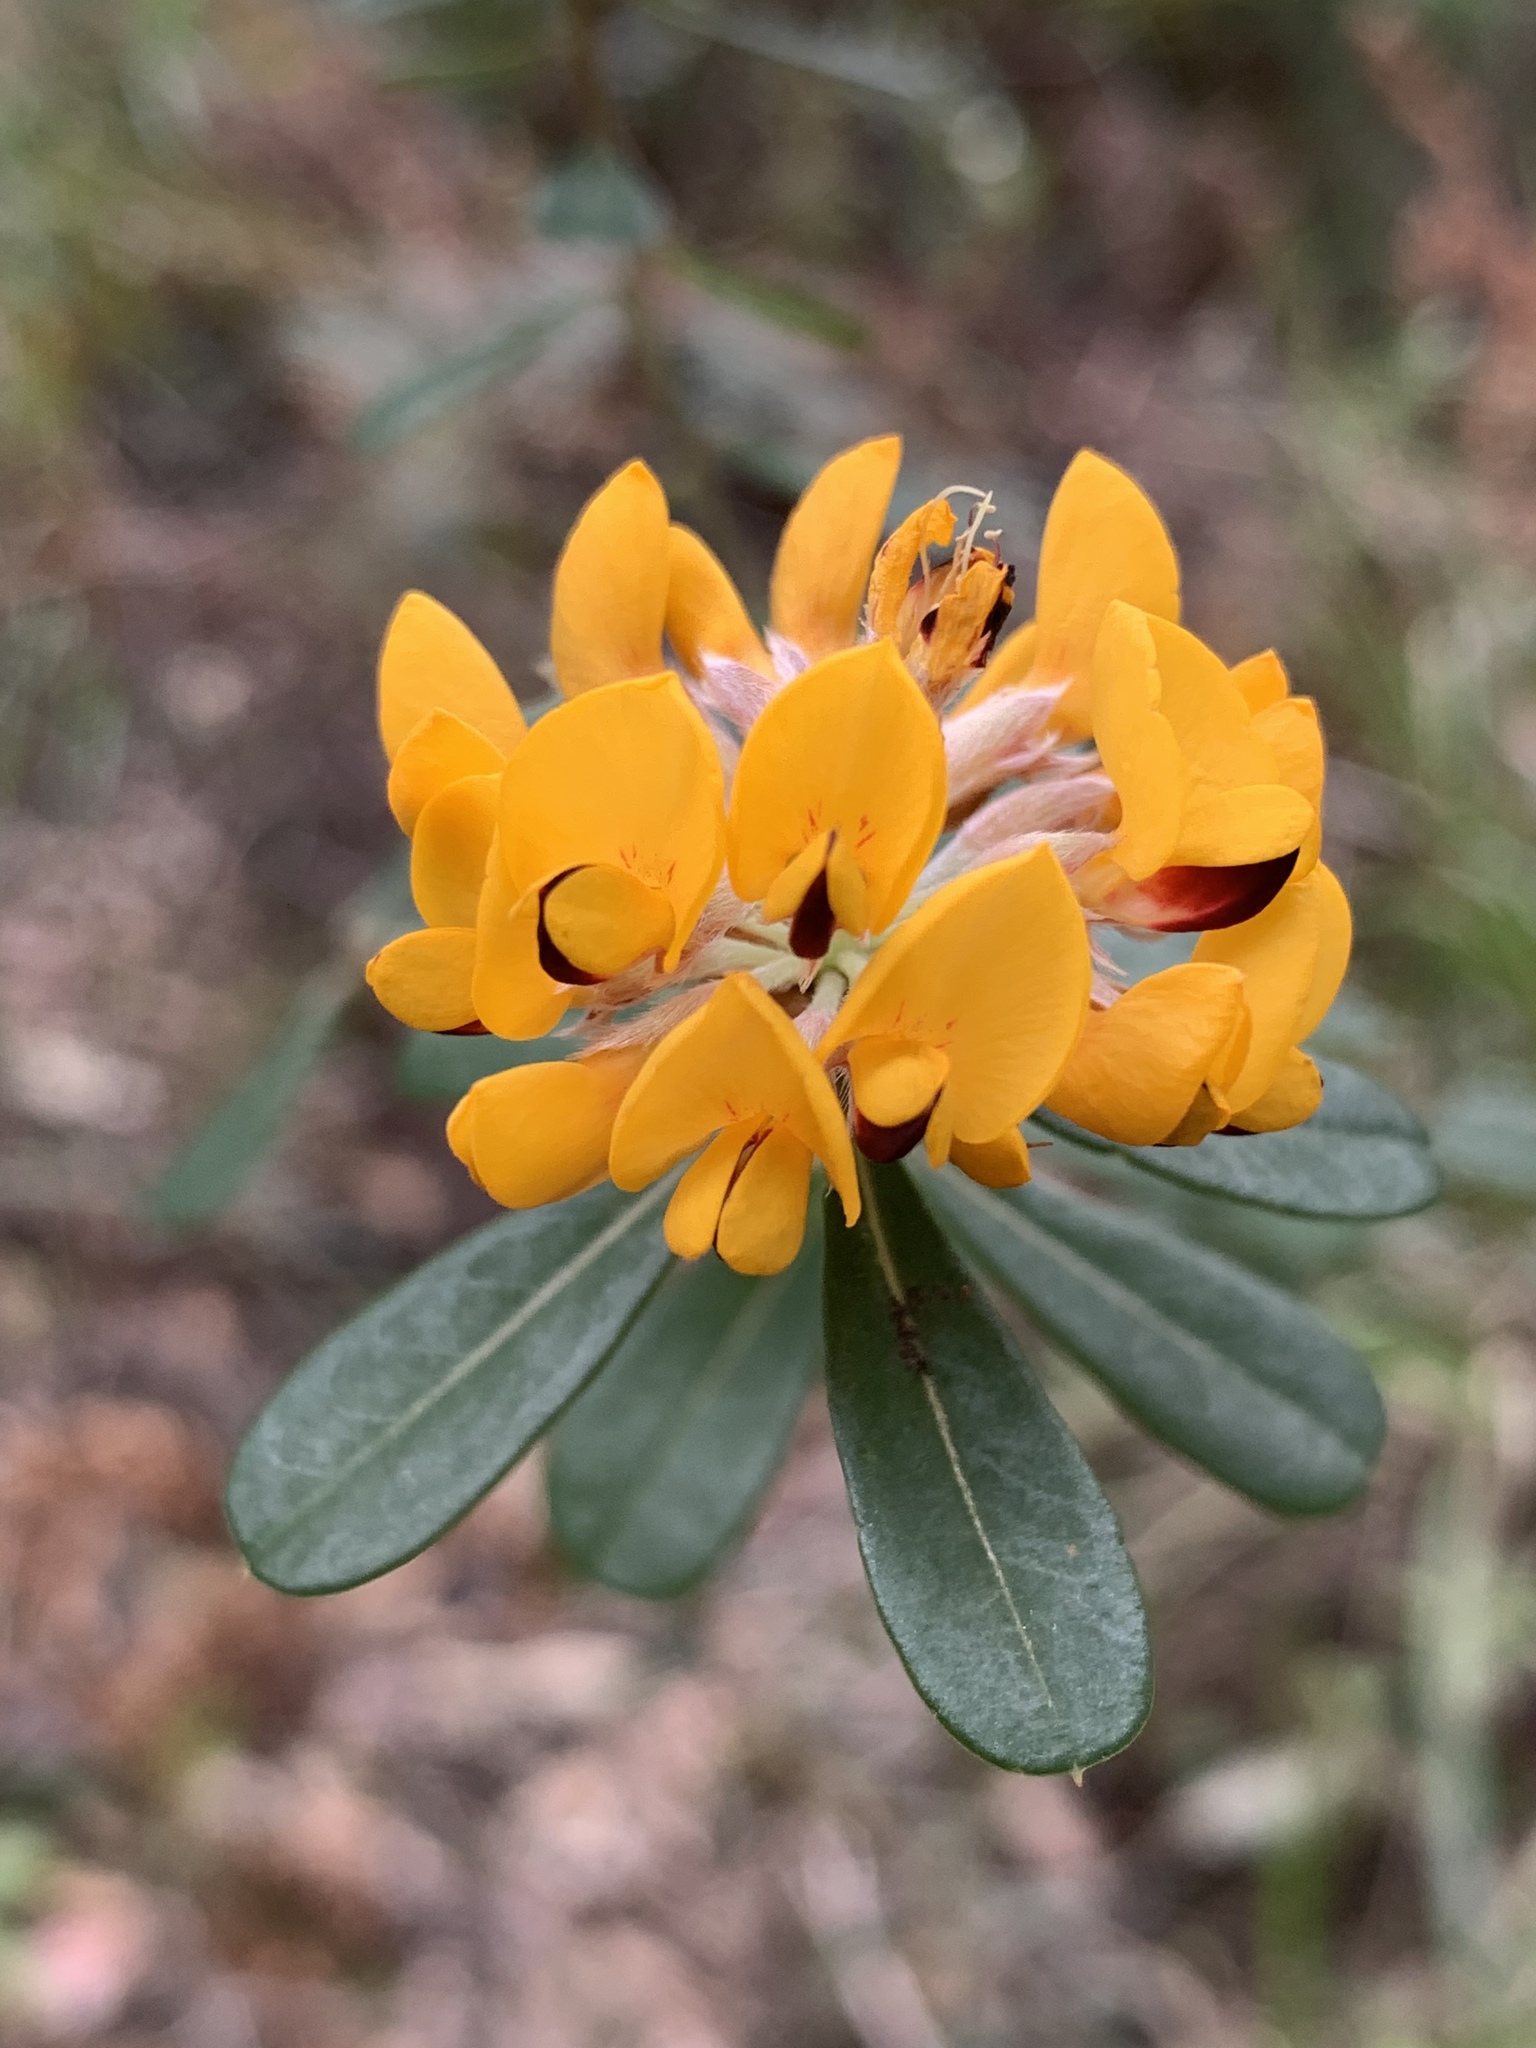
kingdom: Plantae
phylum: Tracheophyta
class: Magnoliopsida
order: Fabales
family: Fabaceae
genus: Pultenaea
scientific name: Pultenaea daphnoides
